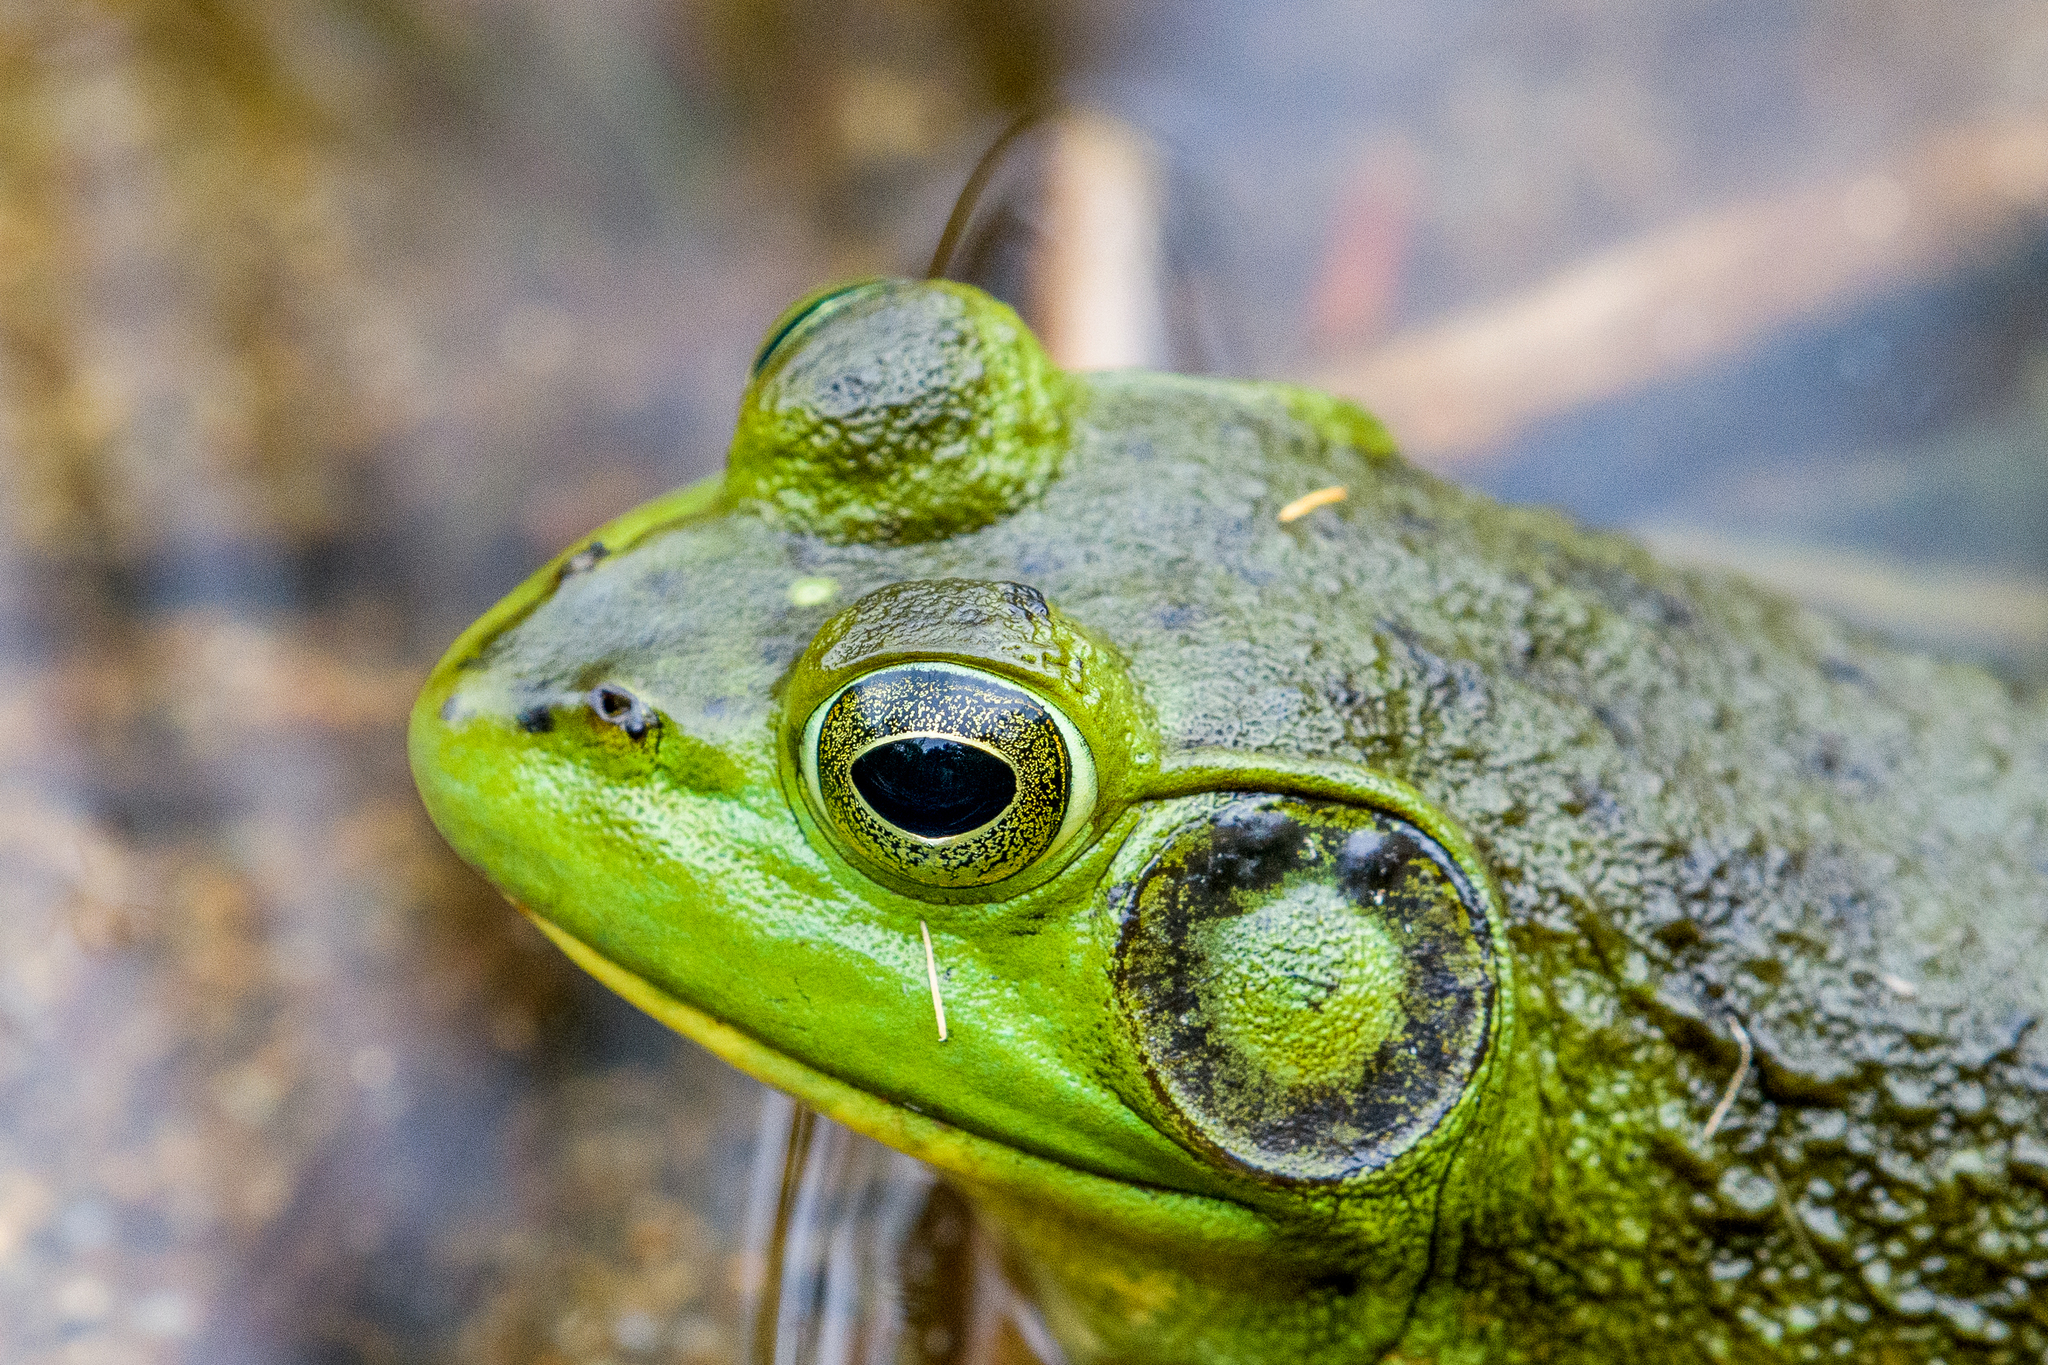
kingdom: Animalia
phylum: Chordata
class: Amphibia
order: Anura
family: Ranidae
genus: Lithobates
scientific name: Lithobates catesbeianus
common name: American bullfrog
